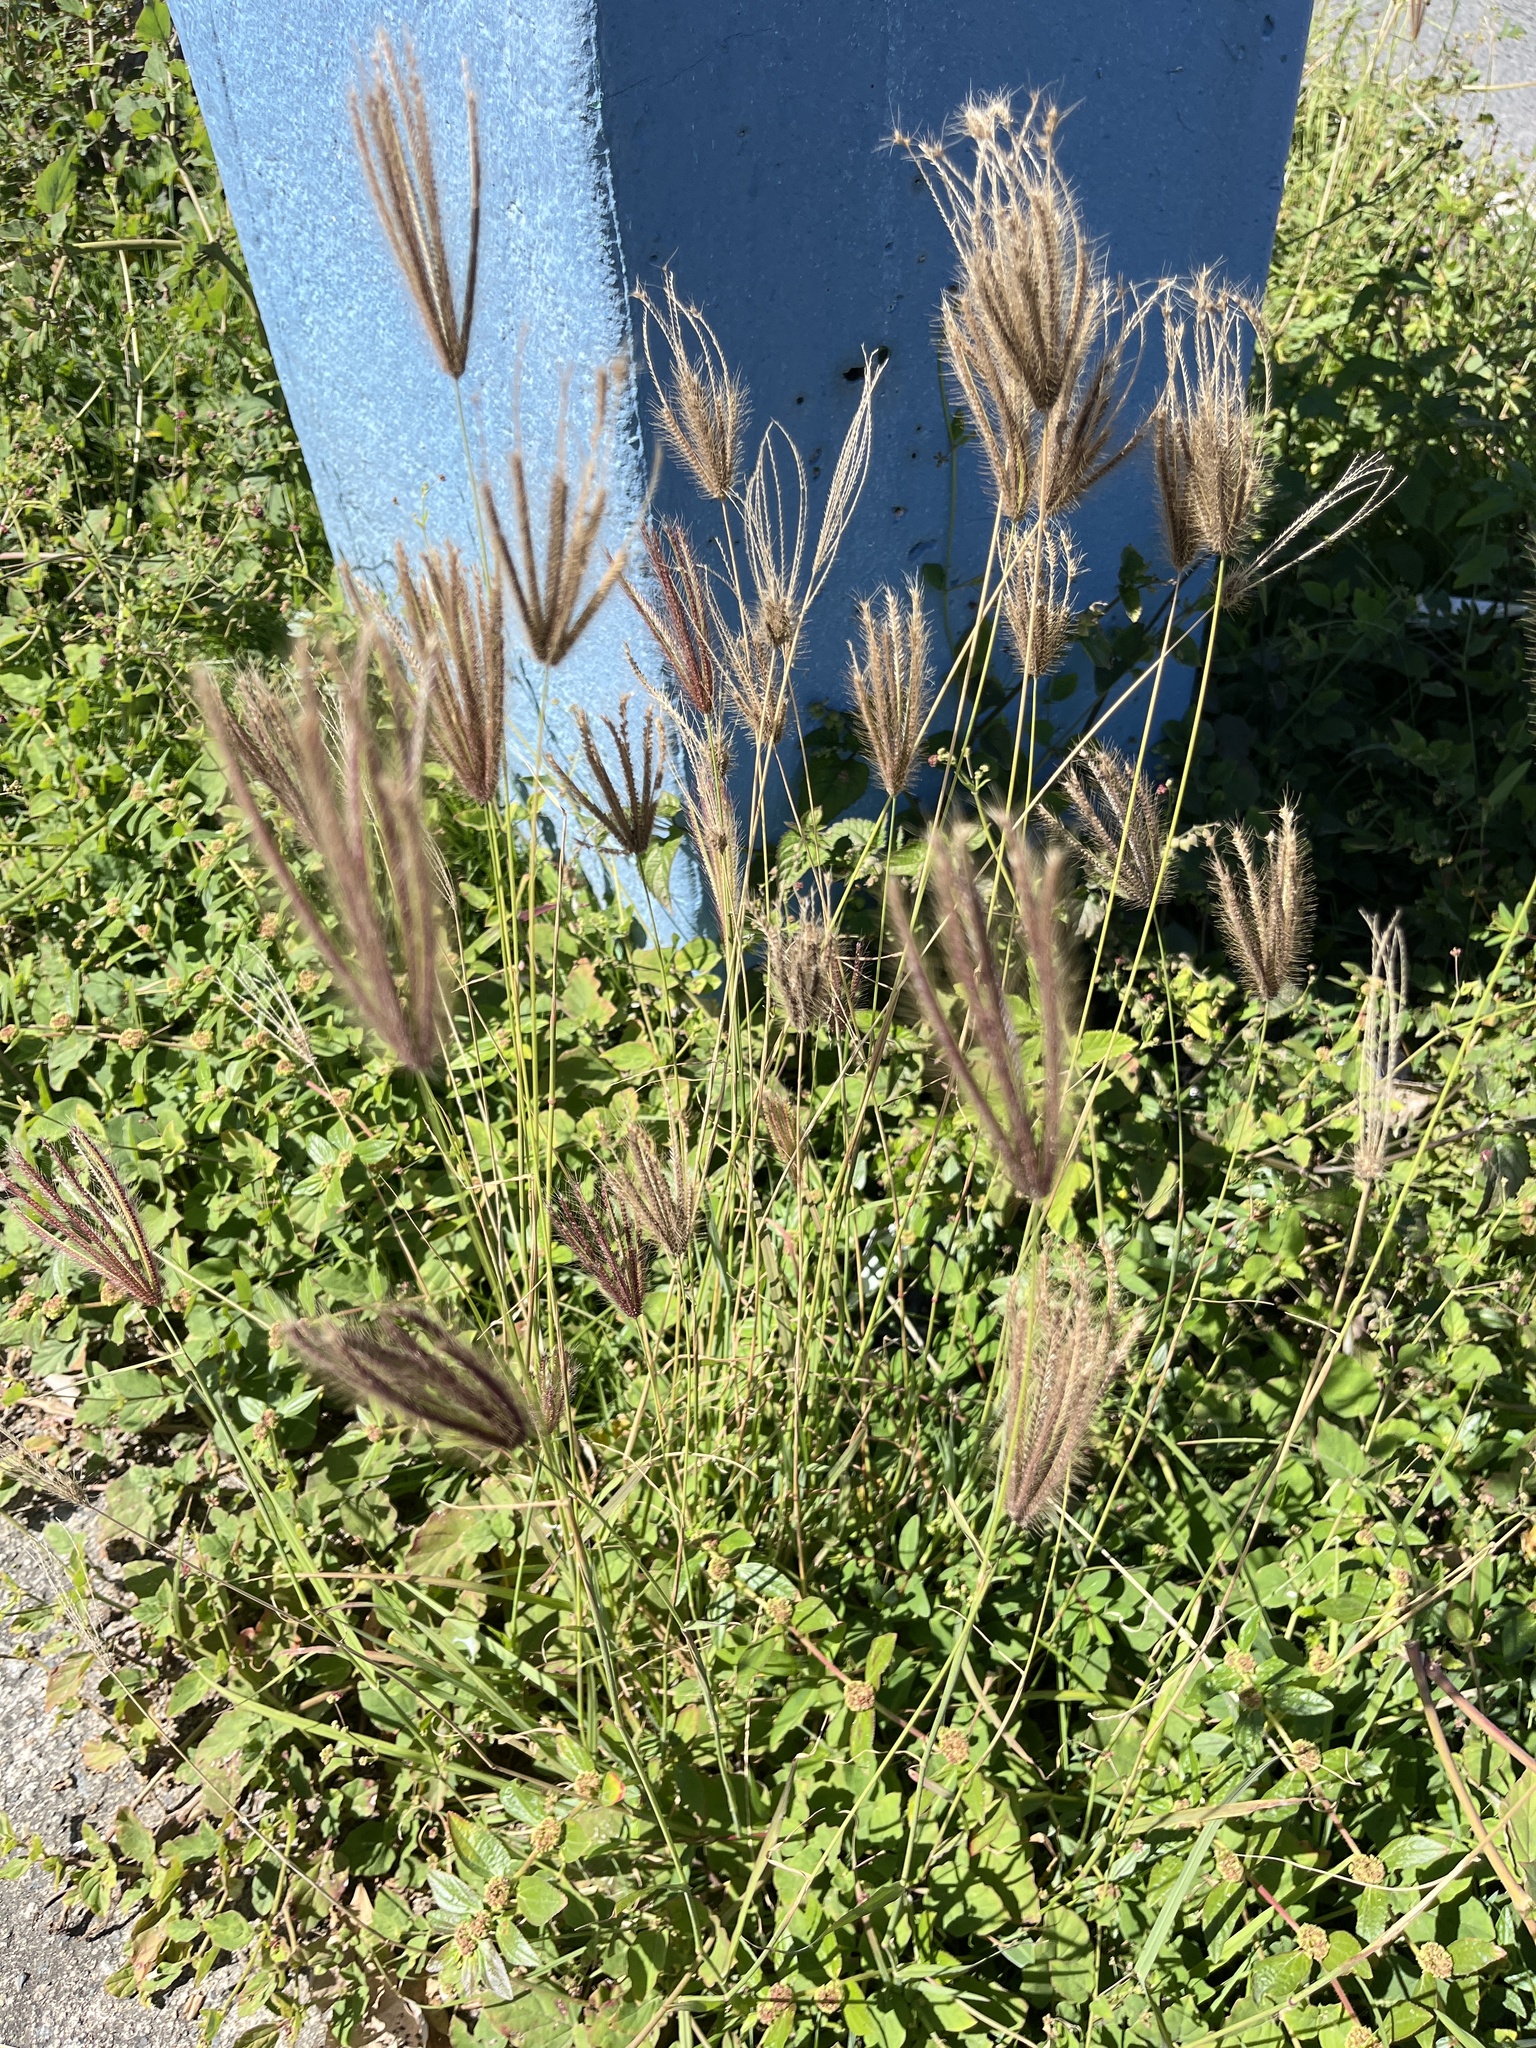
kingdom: Plantae
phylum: Tracheophyta
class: Liliopsida
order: Poales
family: Poaceae
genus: Chloris
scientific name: Chloris barbata
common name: Swollen fingergrass
